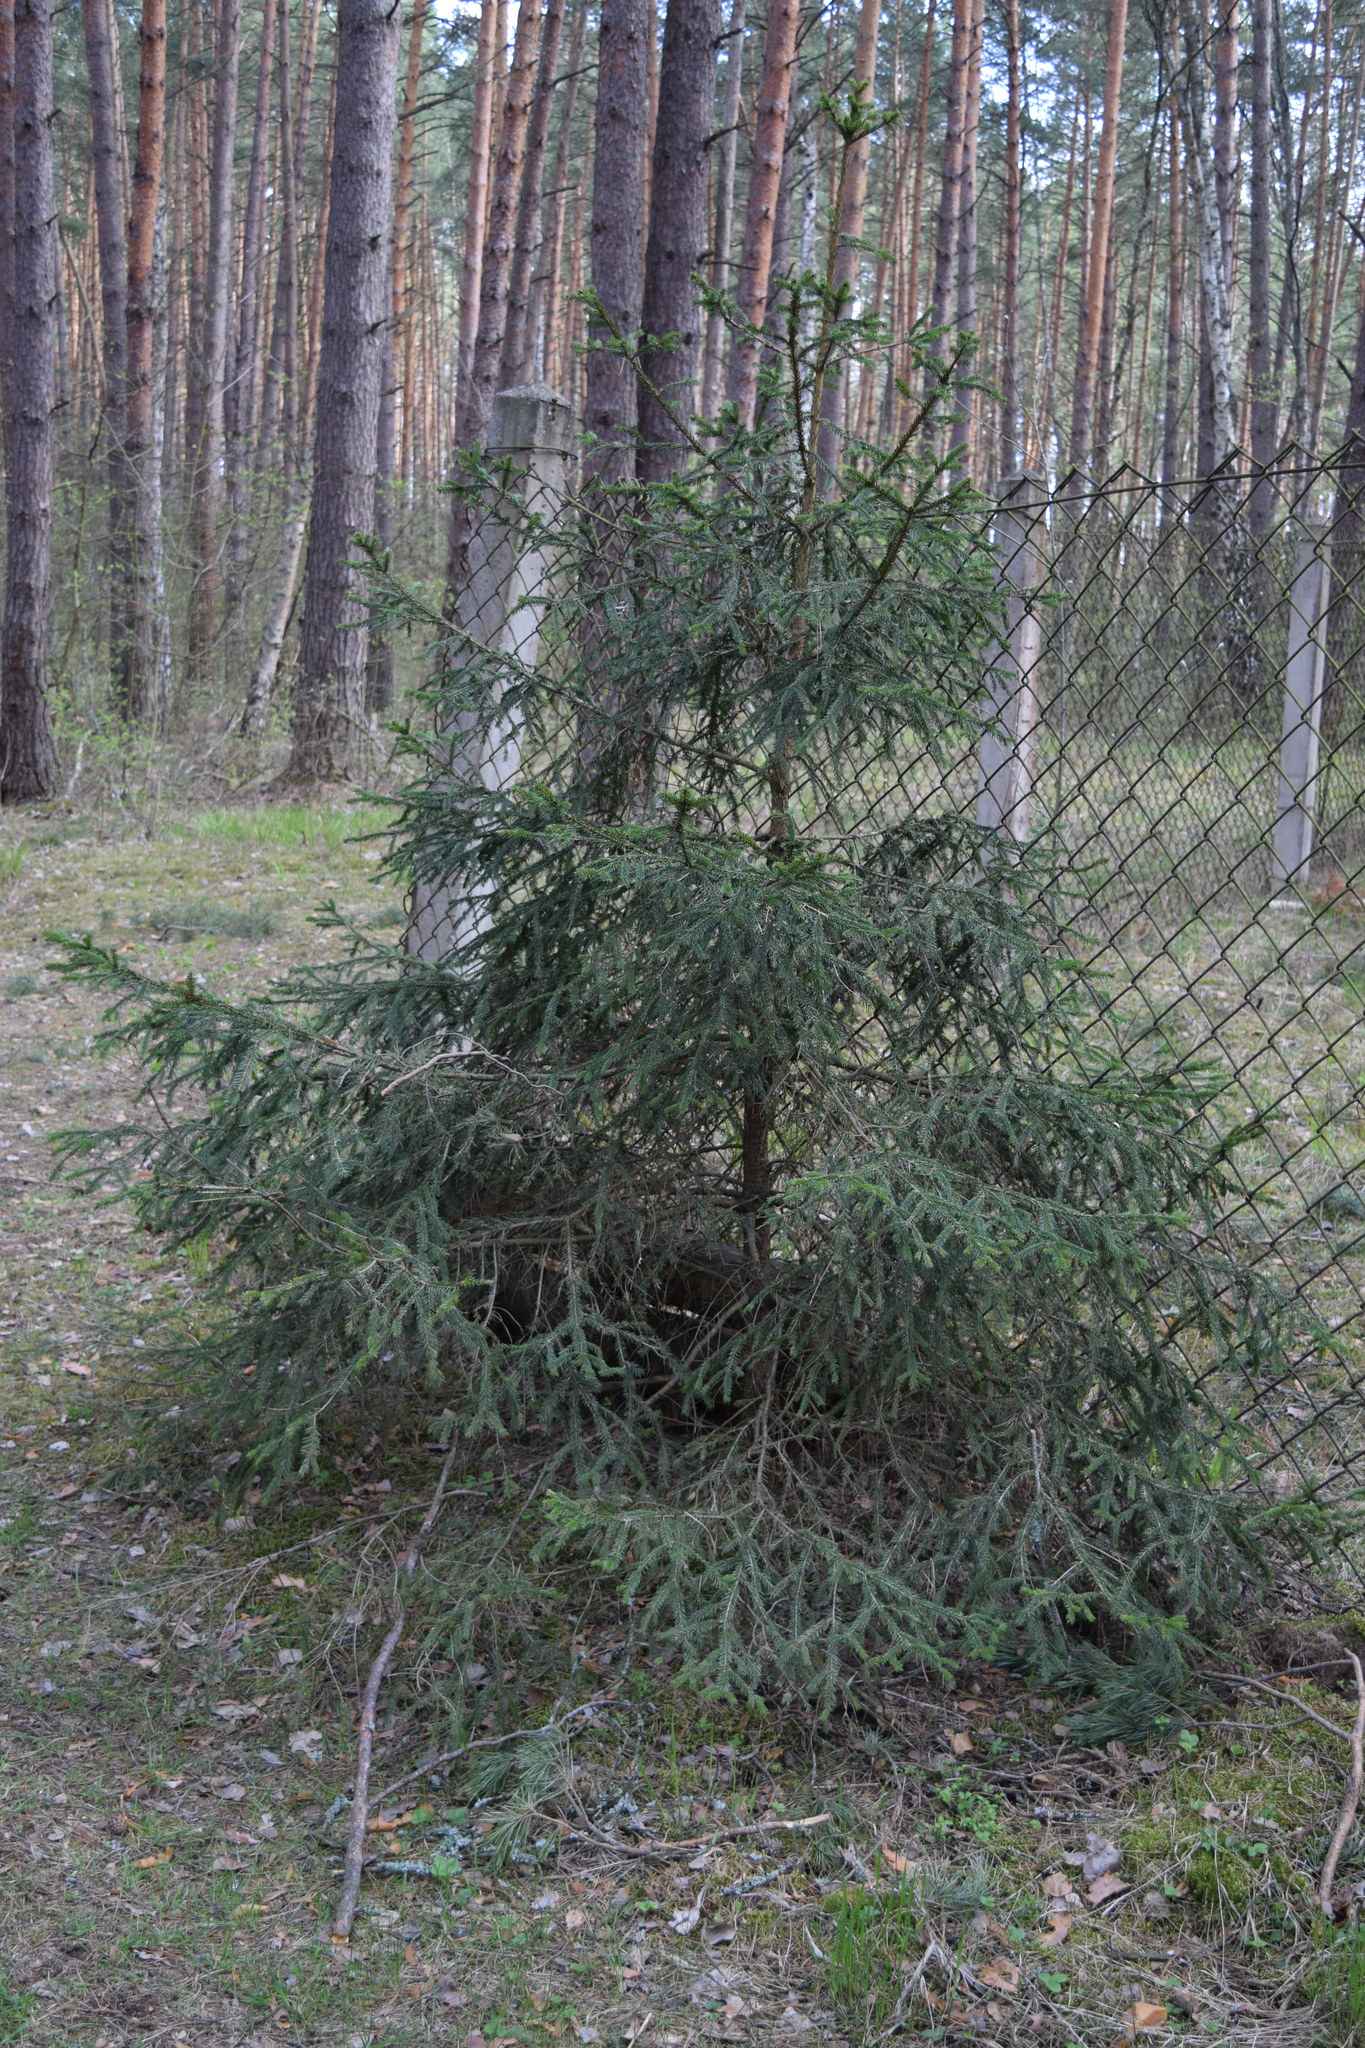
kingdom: Plantae
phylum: Tracheophyta
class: Pinopsida
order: Pinales
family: Pinaceae
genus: Picea
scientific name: Picea abies
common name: Norway spruce
